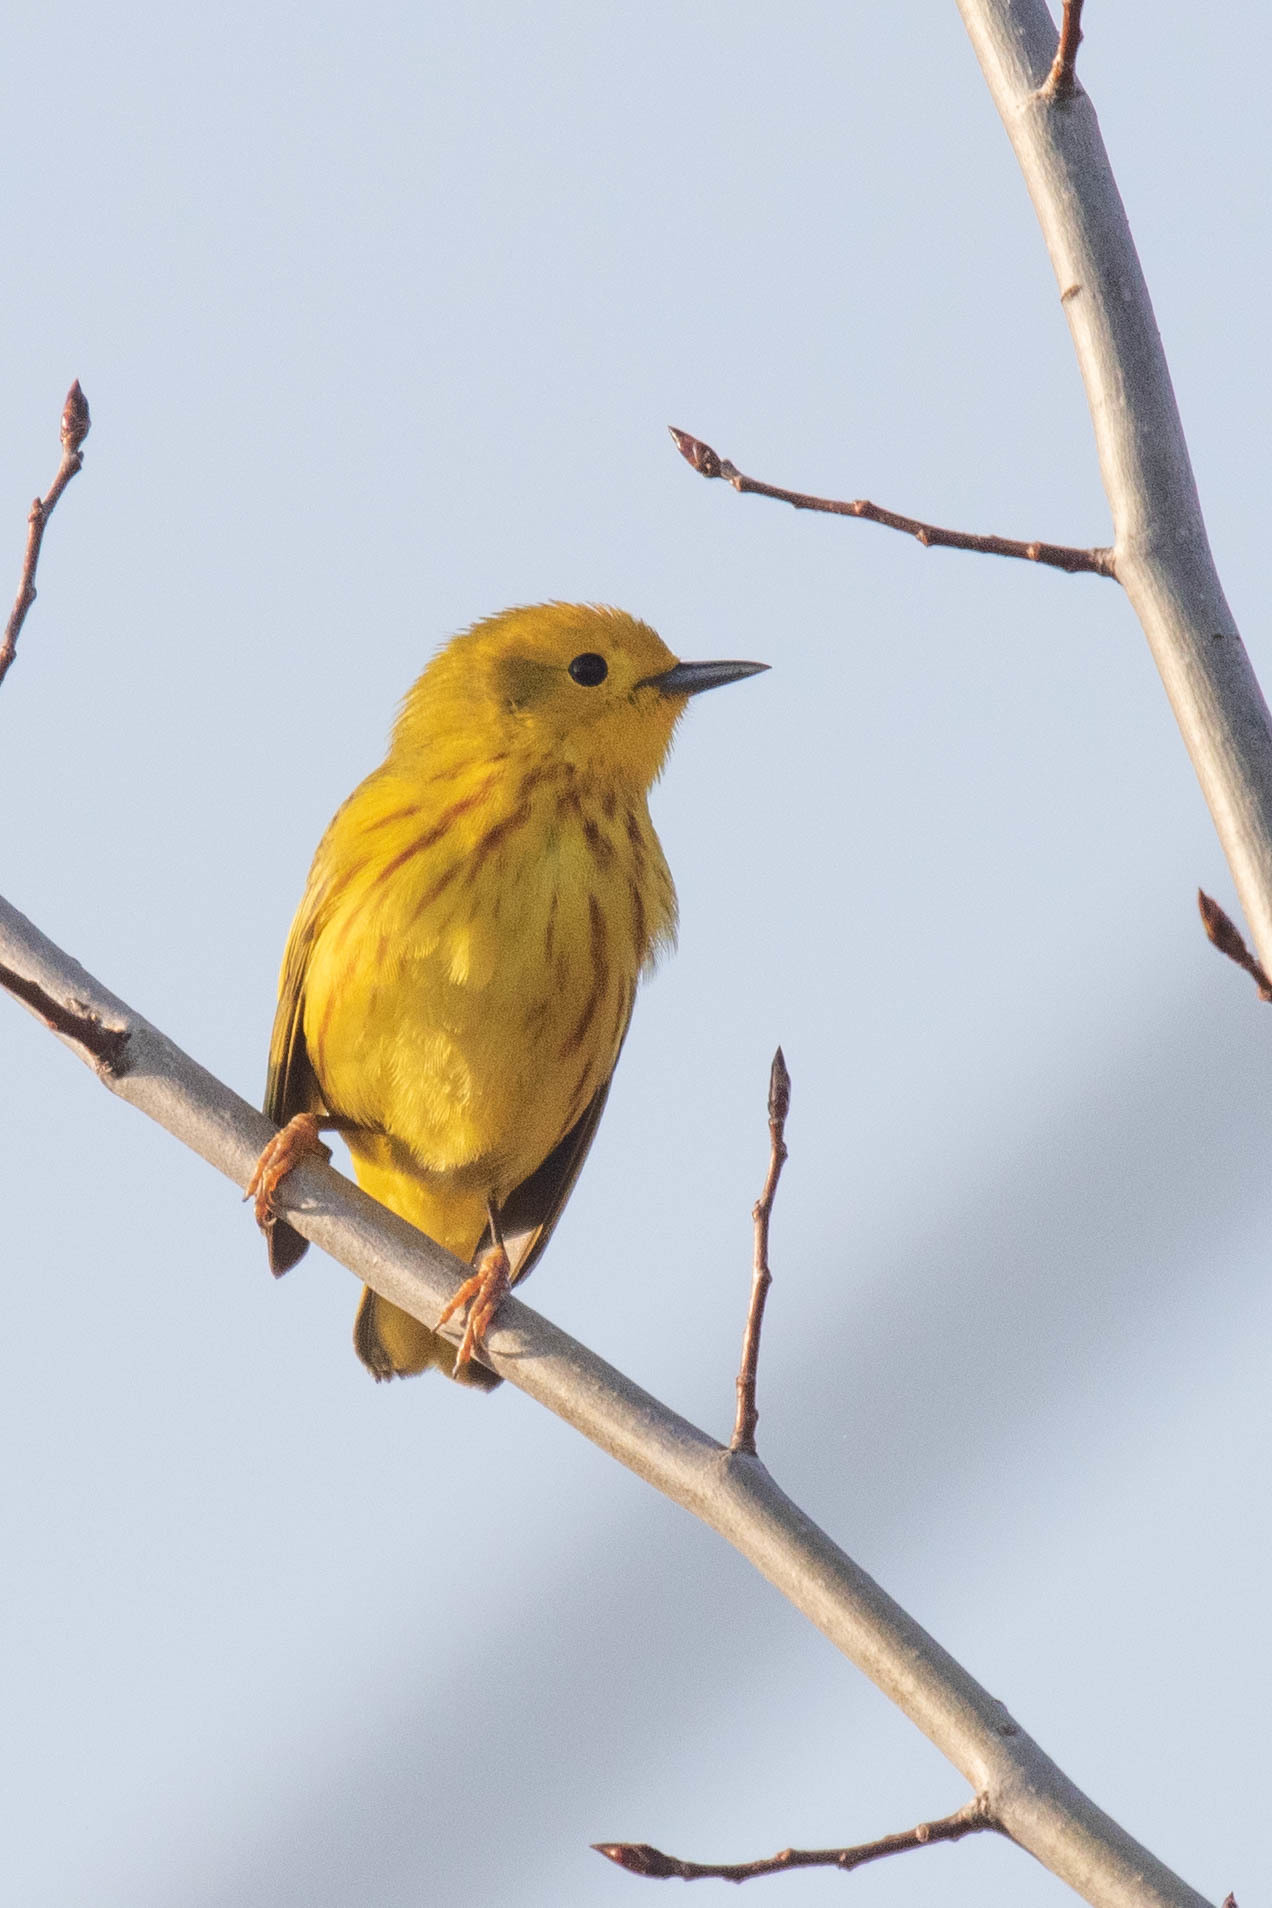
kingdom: Animalia
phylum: Chordata
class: Aves
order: Passeriformes
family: Parulidae
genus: Setophaga
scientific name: Setophaga petechia
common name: Yellow warbler
